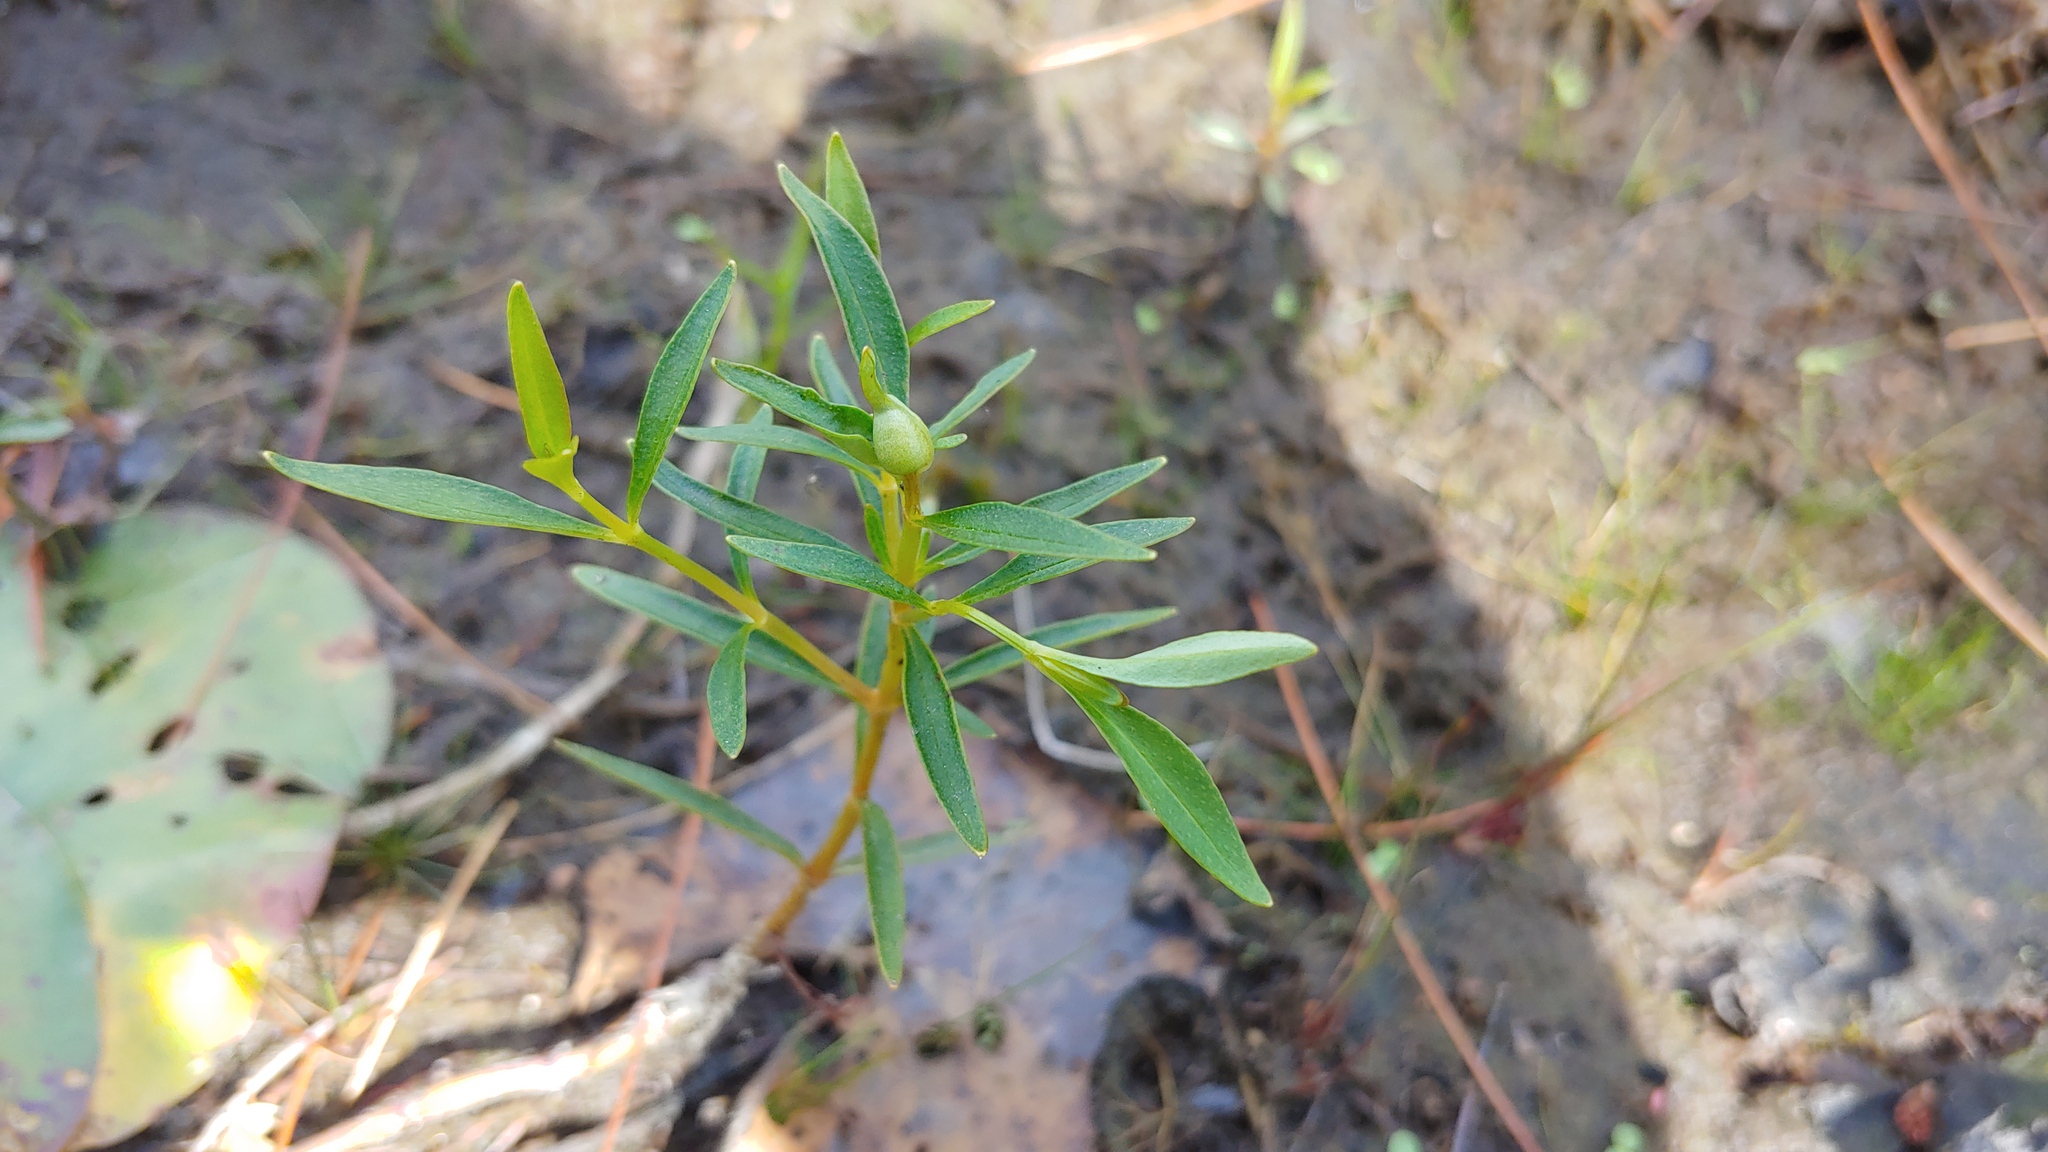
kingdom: Plantae
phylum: Tracheophyta
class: Magnoliopsida
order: Ericales
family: Primulaceae
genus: Lysimachia
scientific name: Lysimachia terrestris
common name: Lake loosestrife
